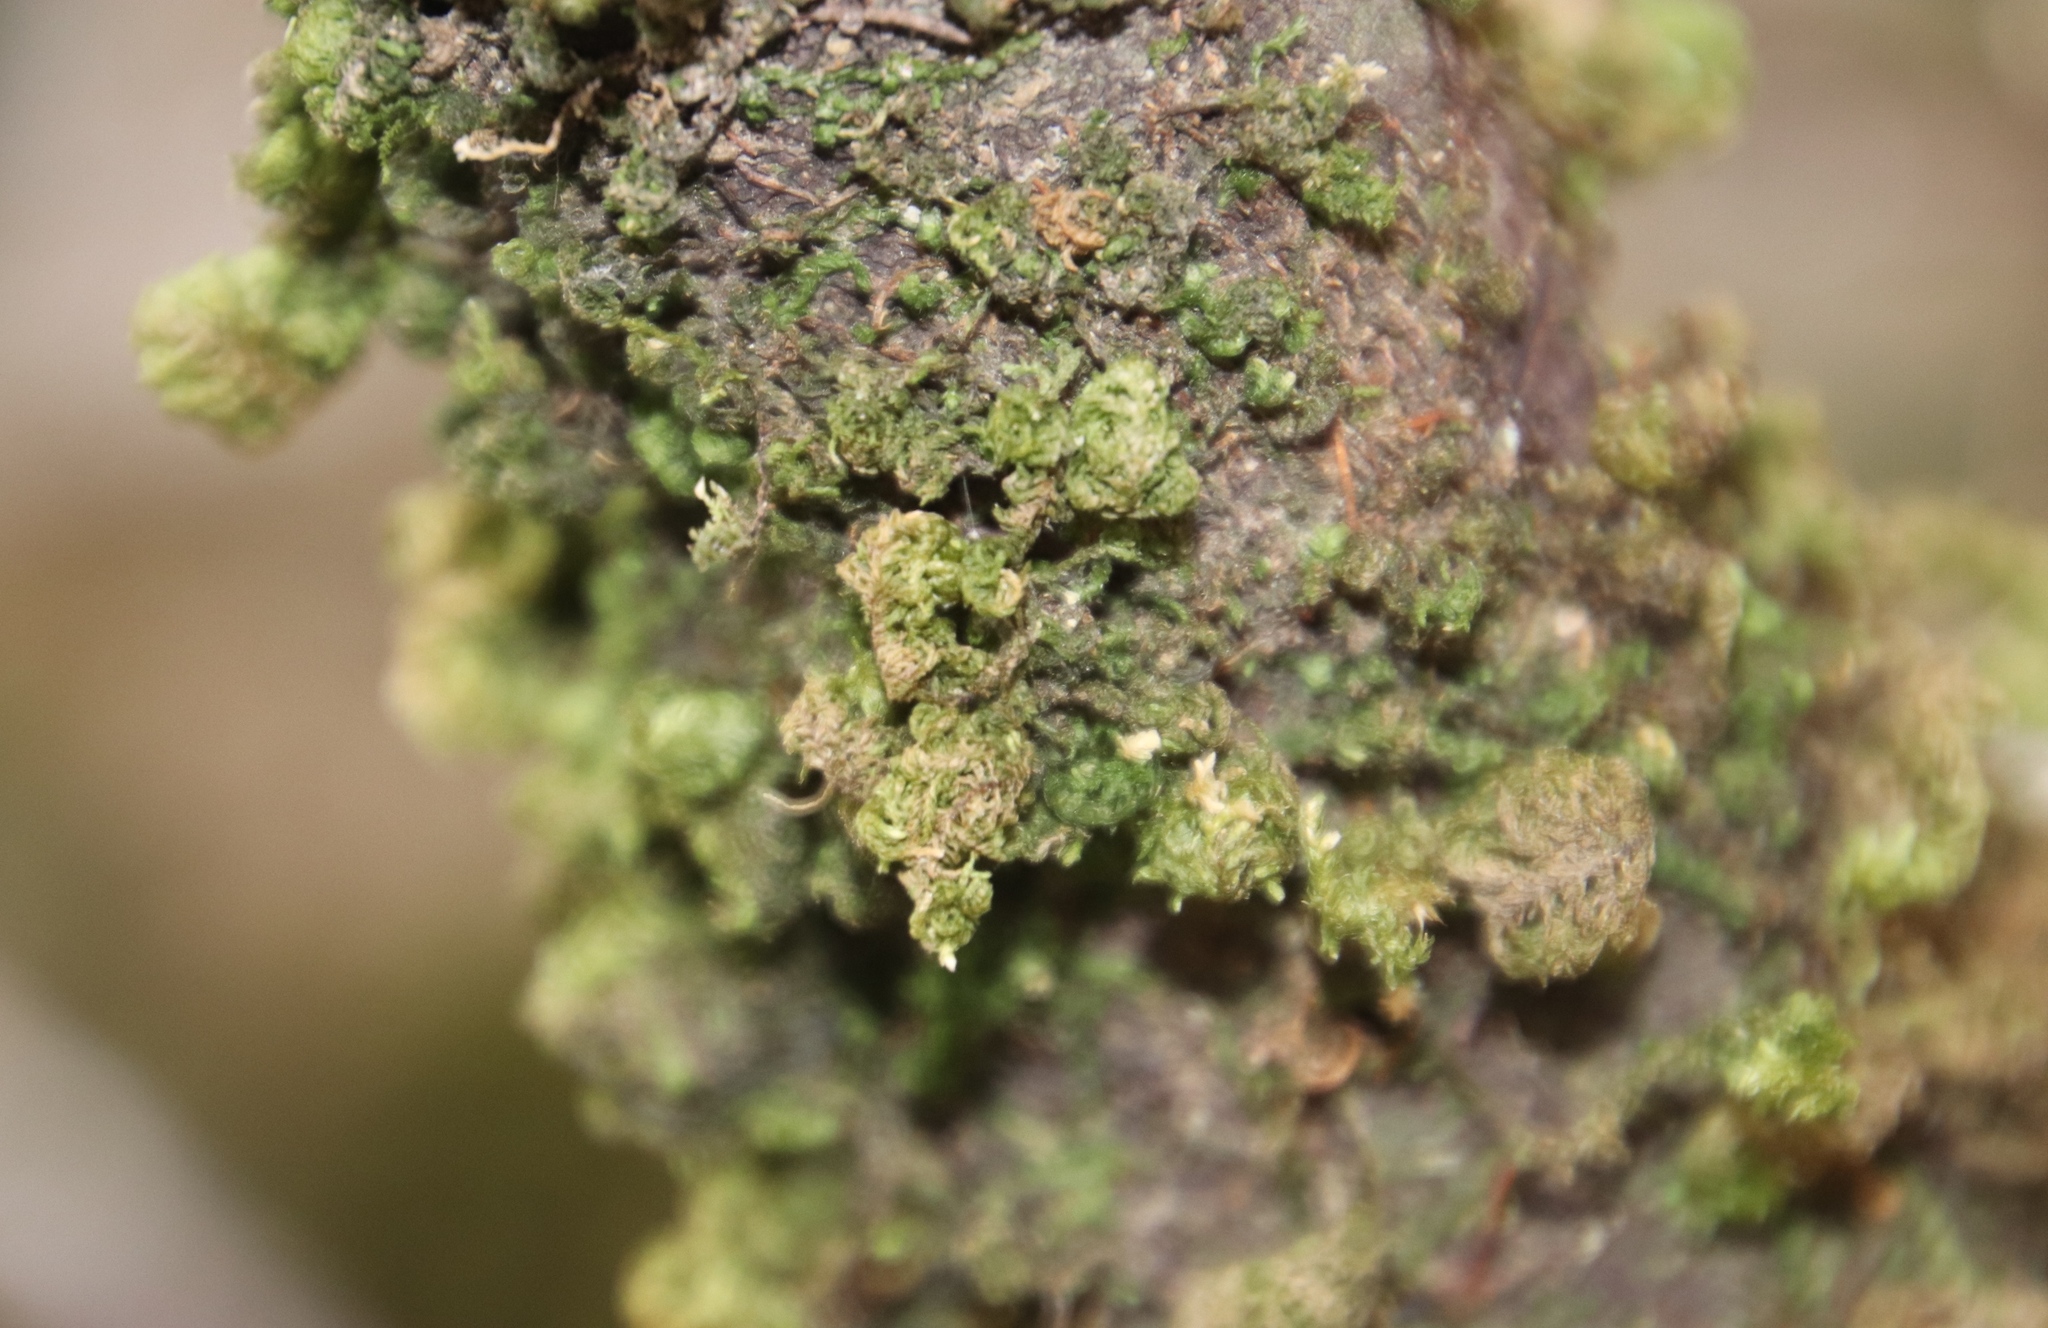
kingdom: Plantae
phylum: Bryophyta
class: Bryopsida
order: Hypnales
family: Neckeraceae
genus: Leptodon
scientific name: Leptodon smithii
